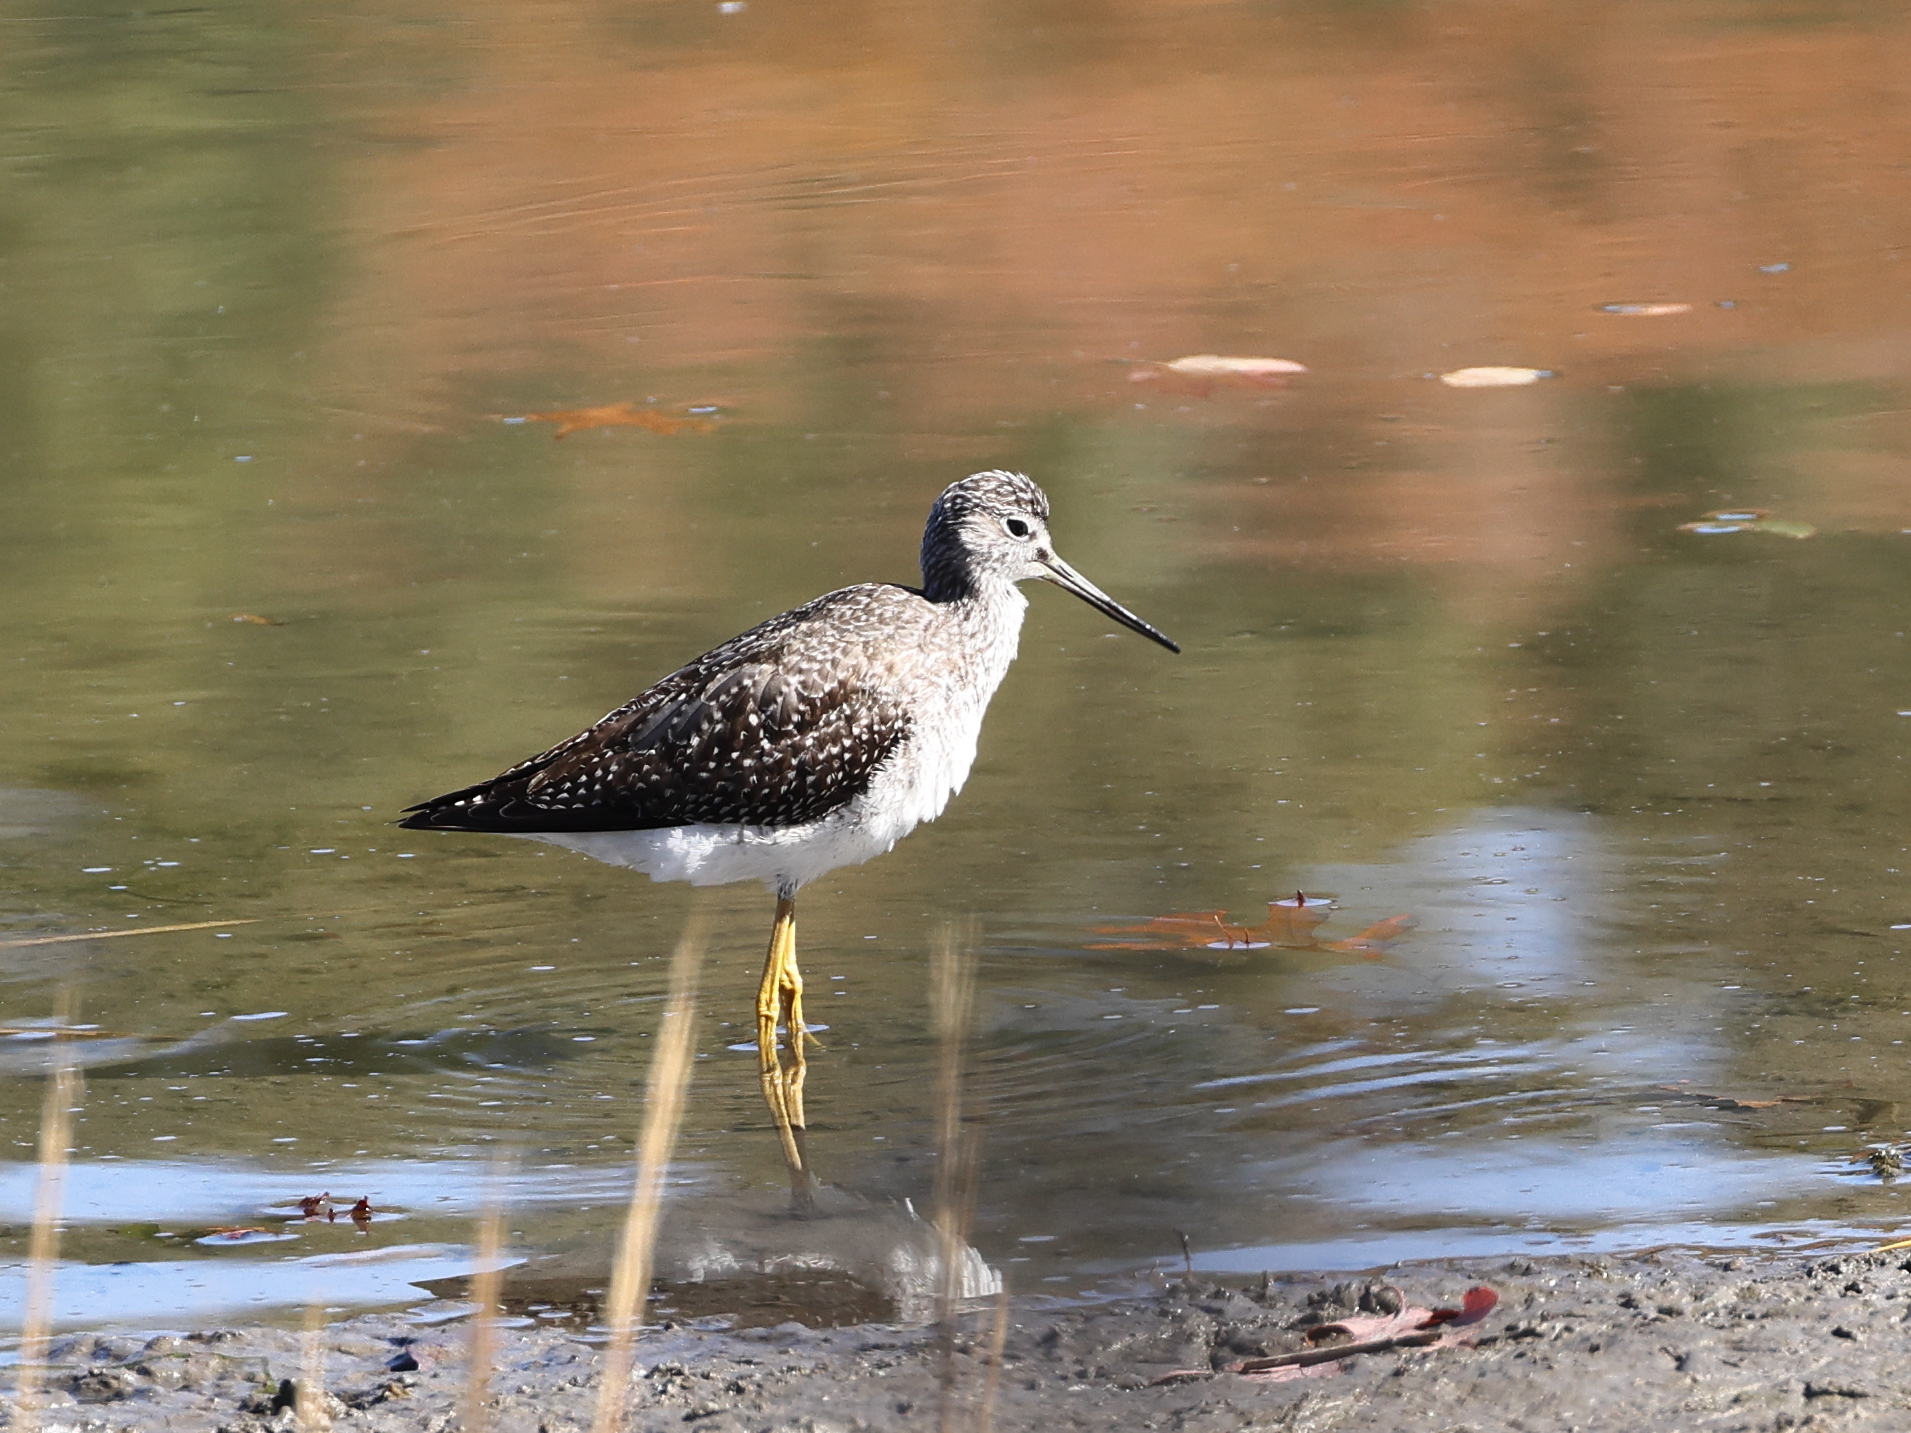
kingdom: Animalia
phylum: Chordata
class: Aves
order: Charadriiformes
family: Scolopacidae
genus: Tringa
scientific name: Tringa melanoleuca
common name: Greater yellowlegs
